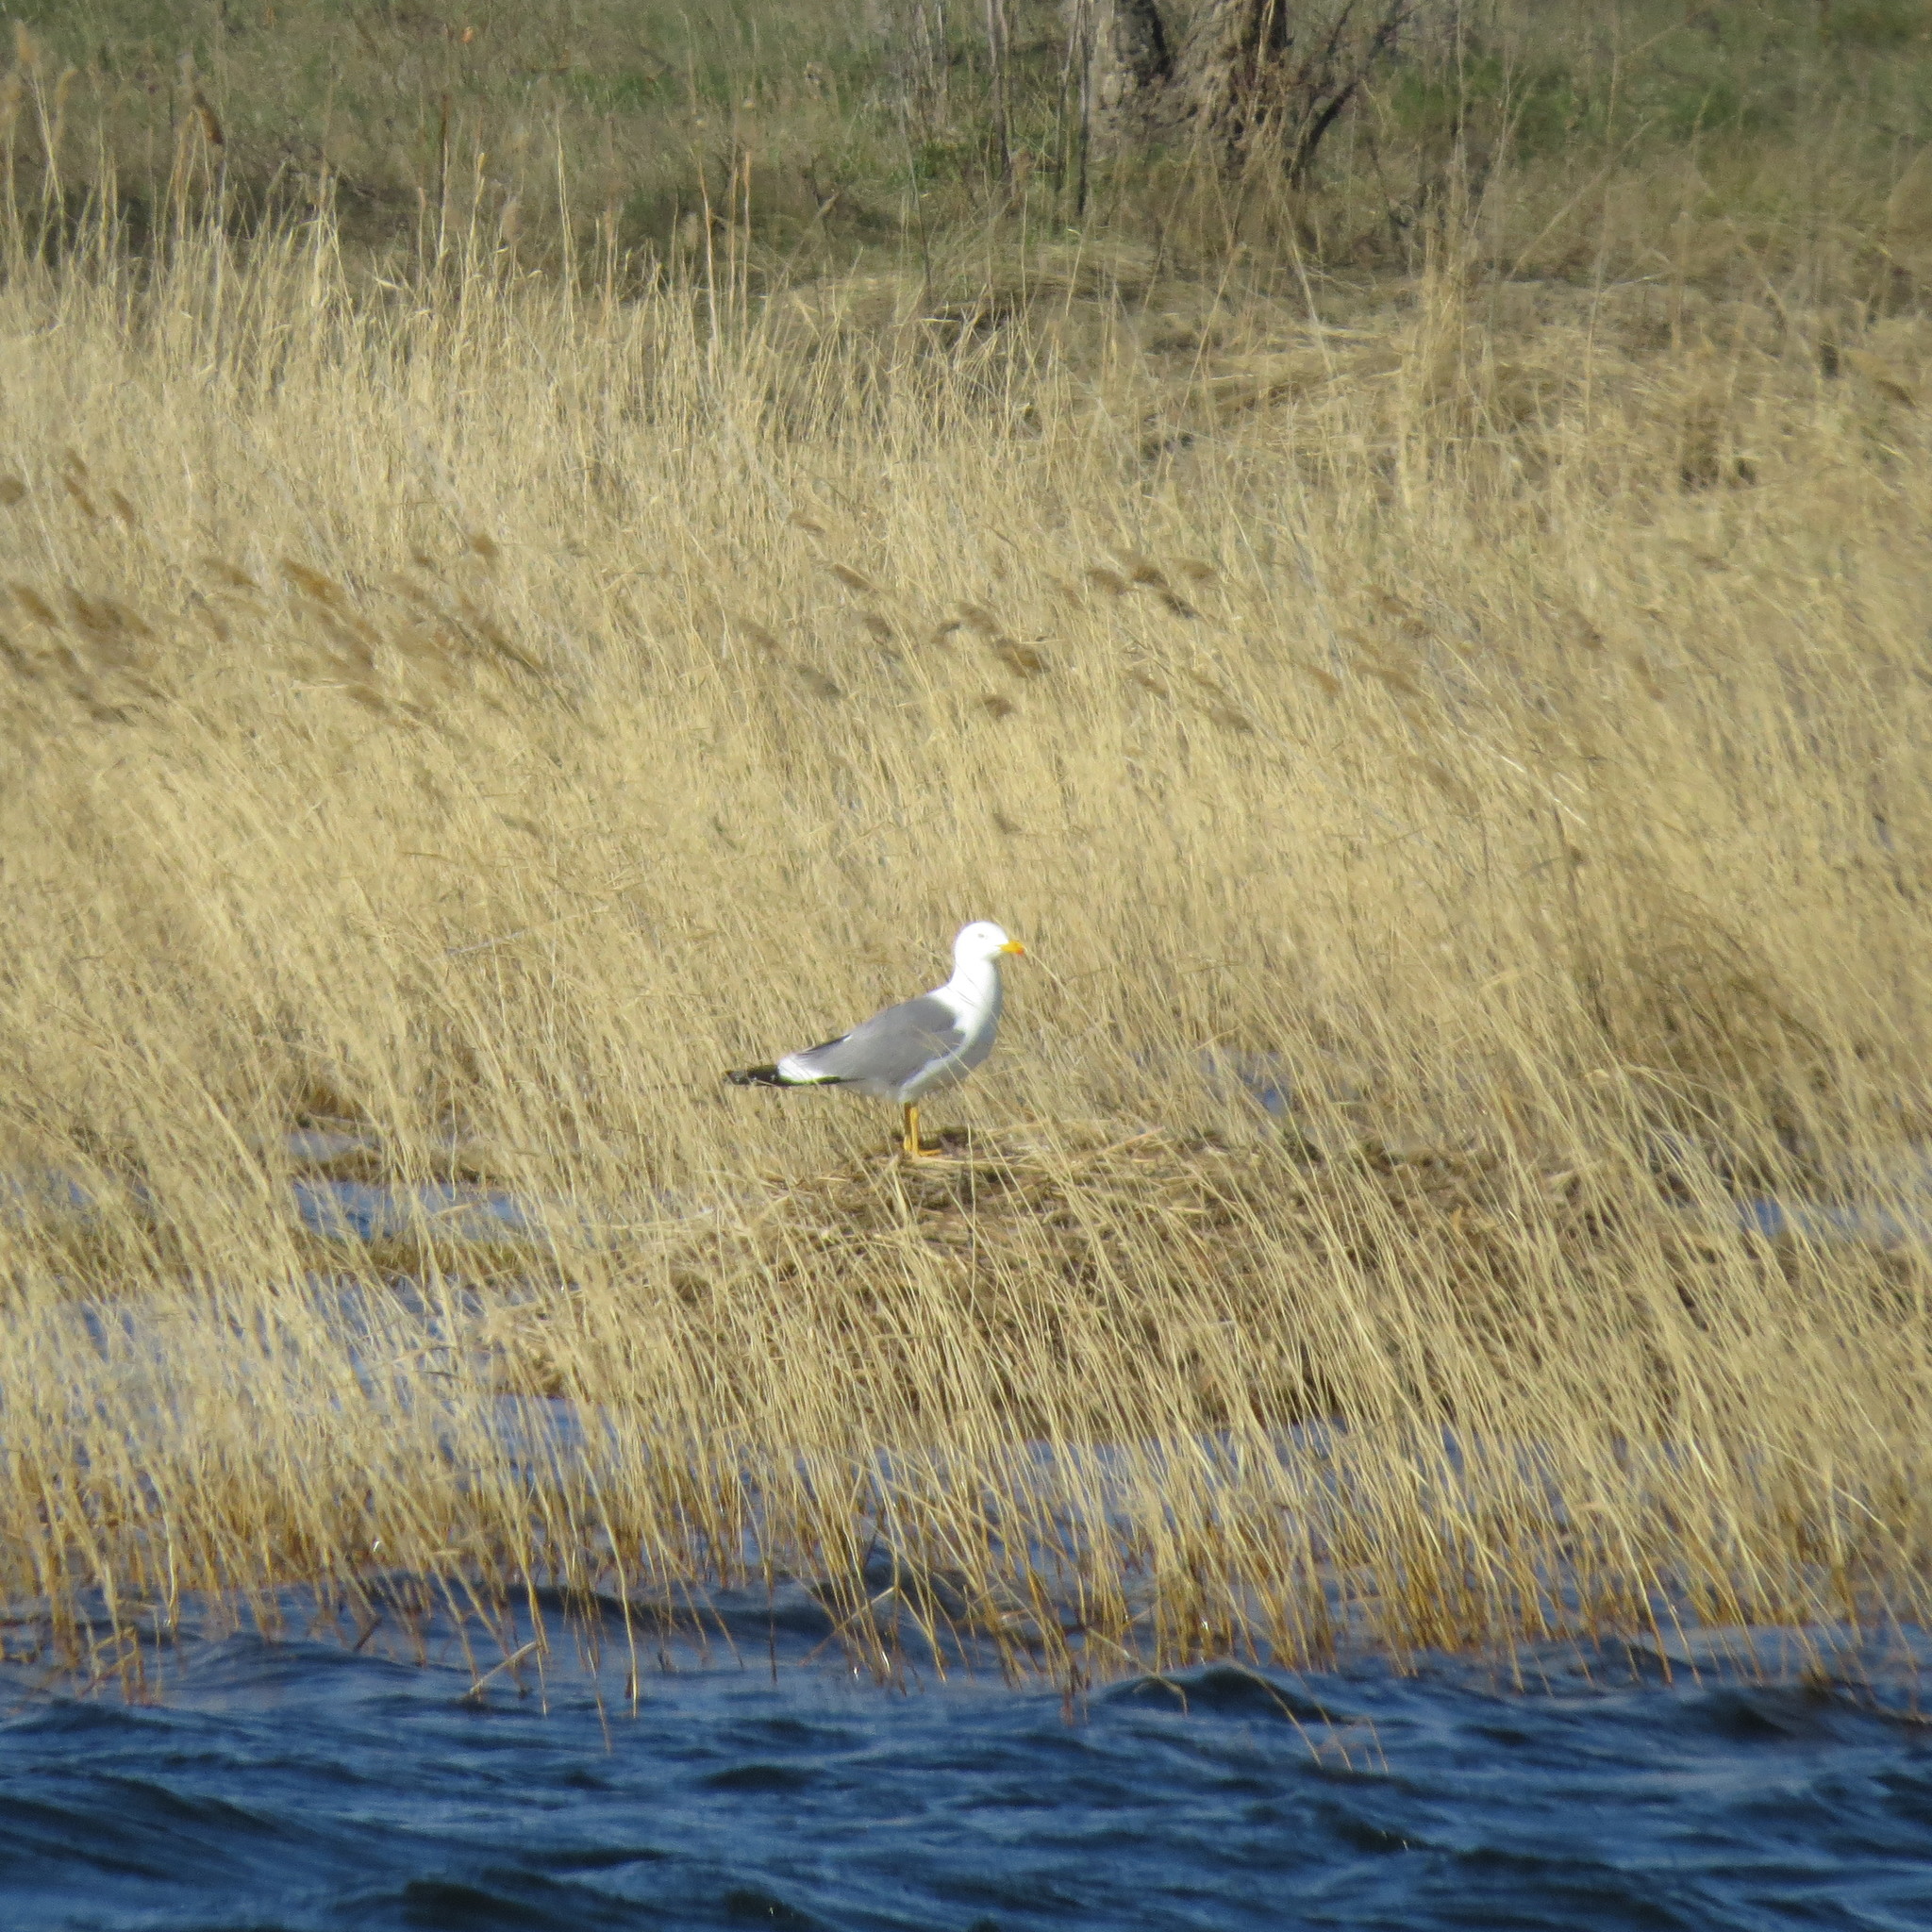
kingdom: Animalia
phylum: Chordata
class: Aves
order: Charadriiformes
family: Laridae
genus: Larus
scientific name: Larus fuscus
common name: Lesser black-backed gull
